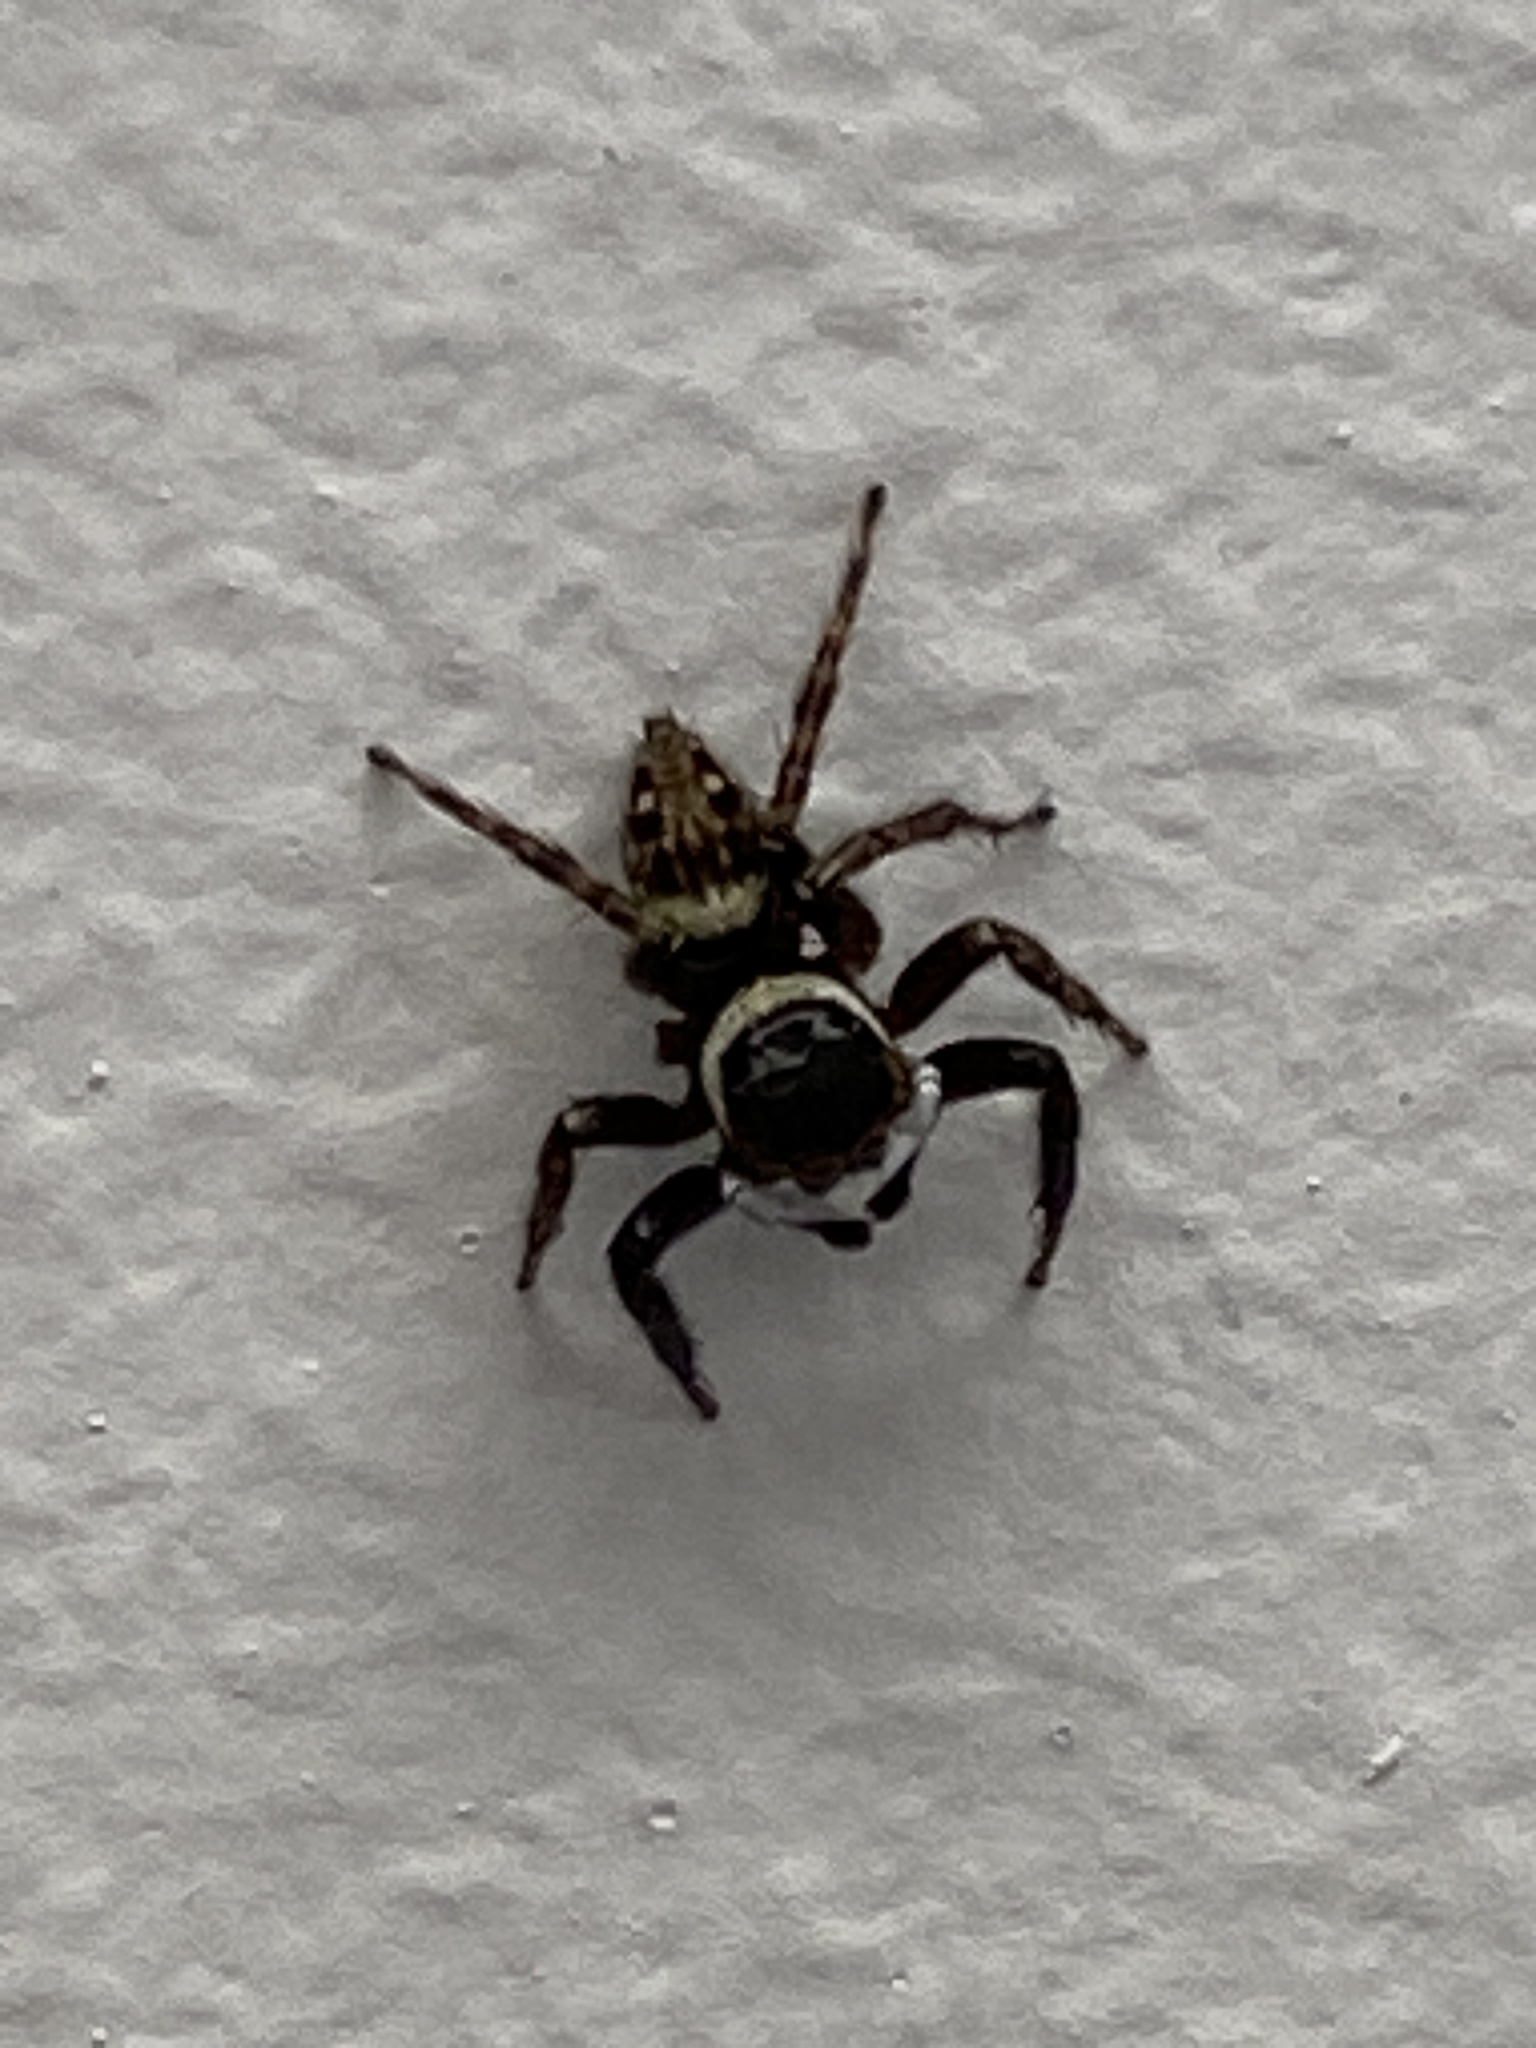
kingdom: Animalia
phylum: Arthropoda
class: Arachnida
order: Araneae
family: Salticidae
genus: Hasarius
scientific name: Hasarius adansoni
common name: Jumping spider
